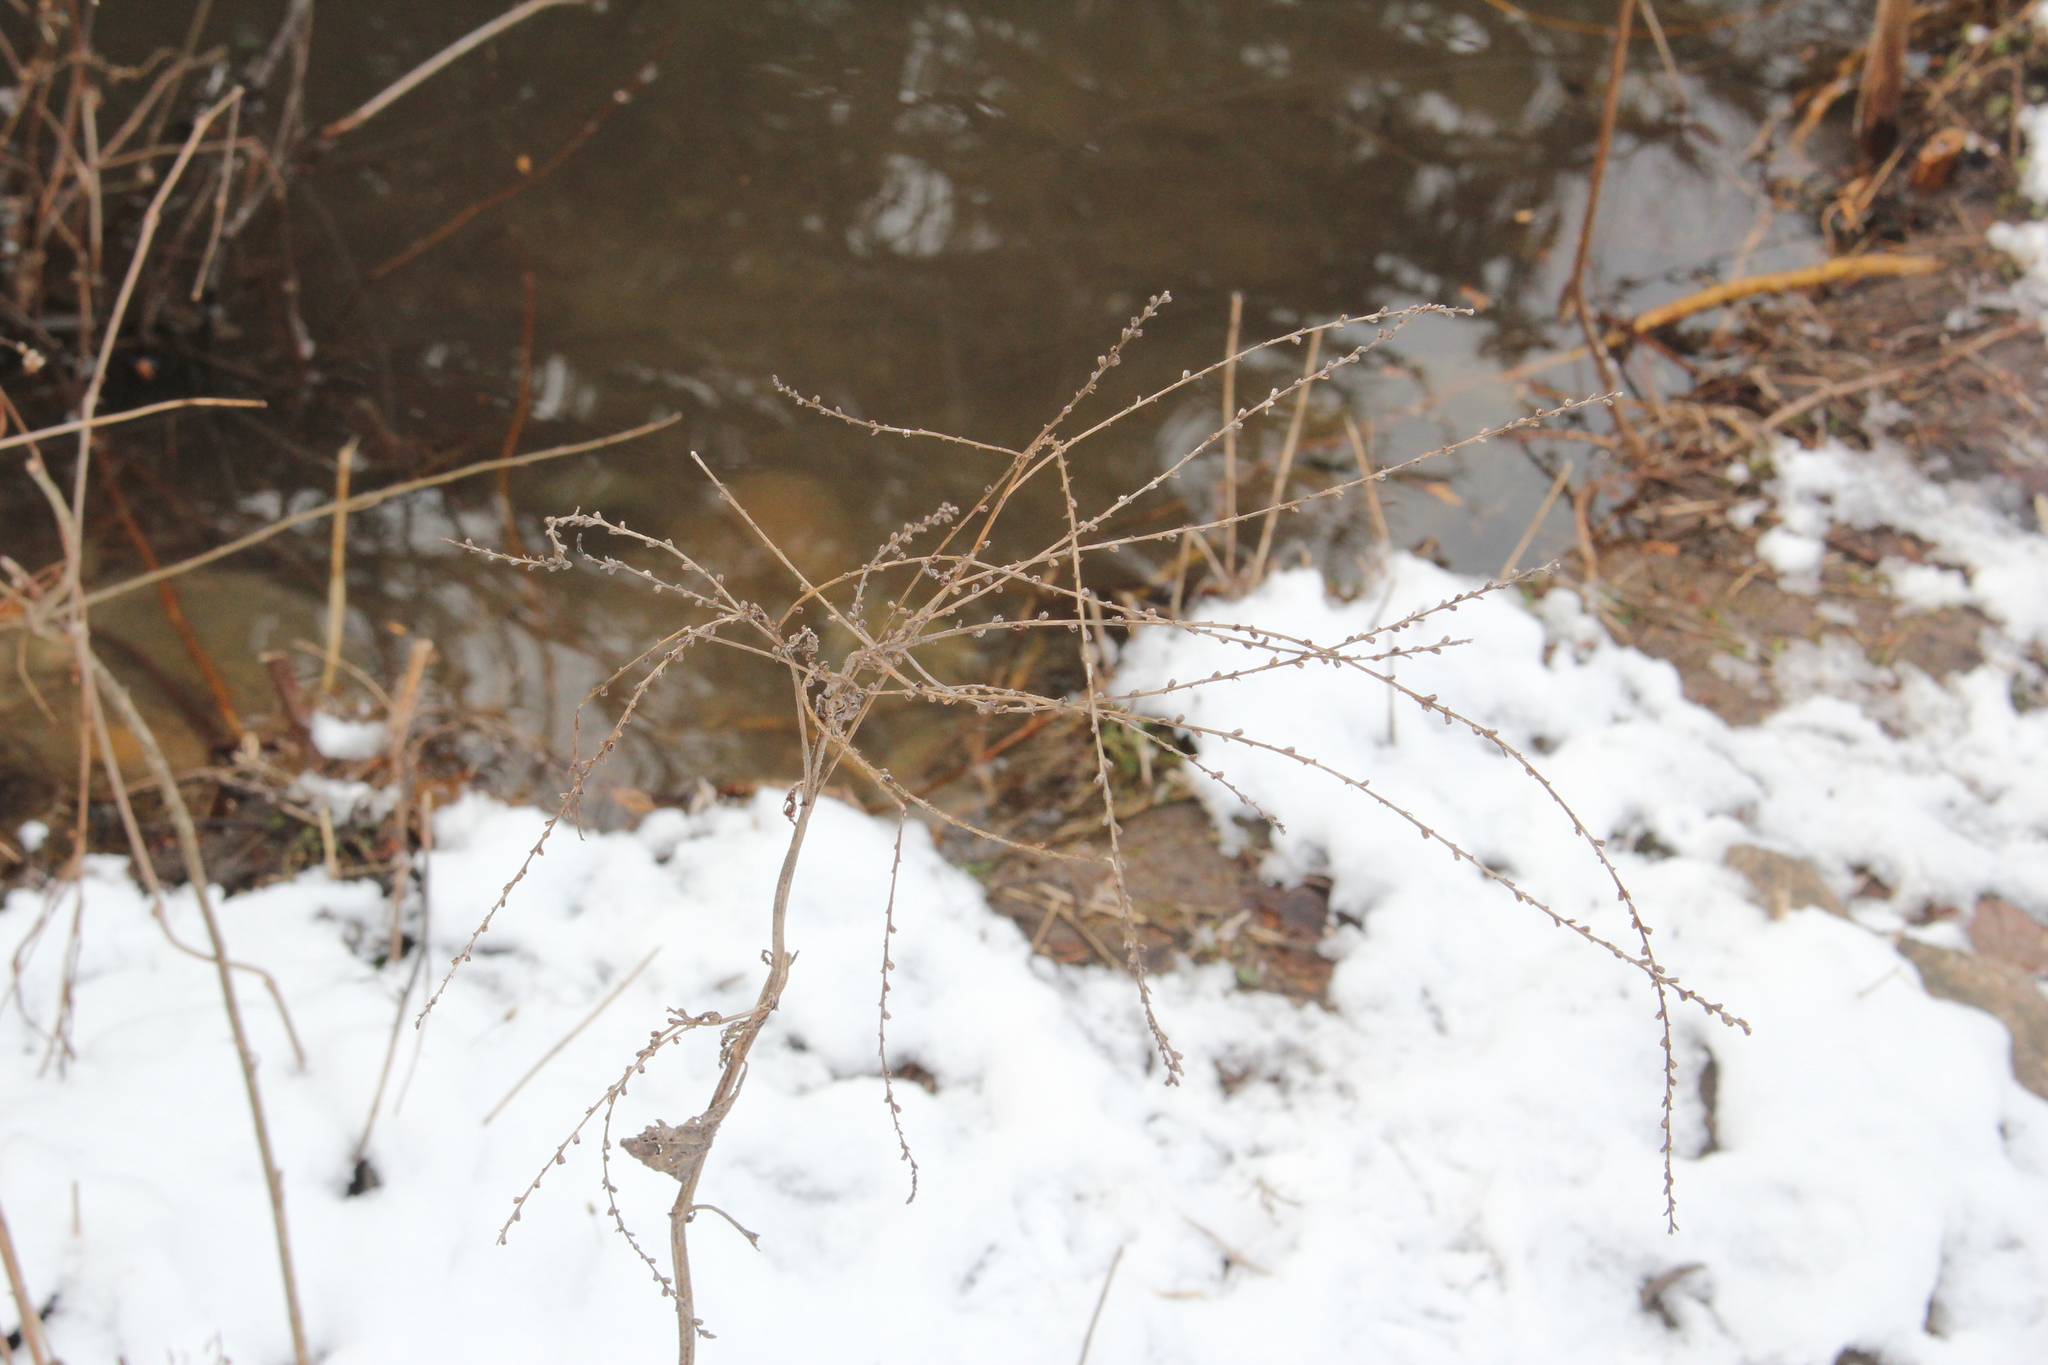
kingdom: Plantae
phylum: Tracheophyta
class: Magnoliopsida
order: Lamiales
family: Verbenaceae
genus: Verbena
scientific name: Verbena urticifolia
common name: Nettle-leaved vervain
